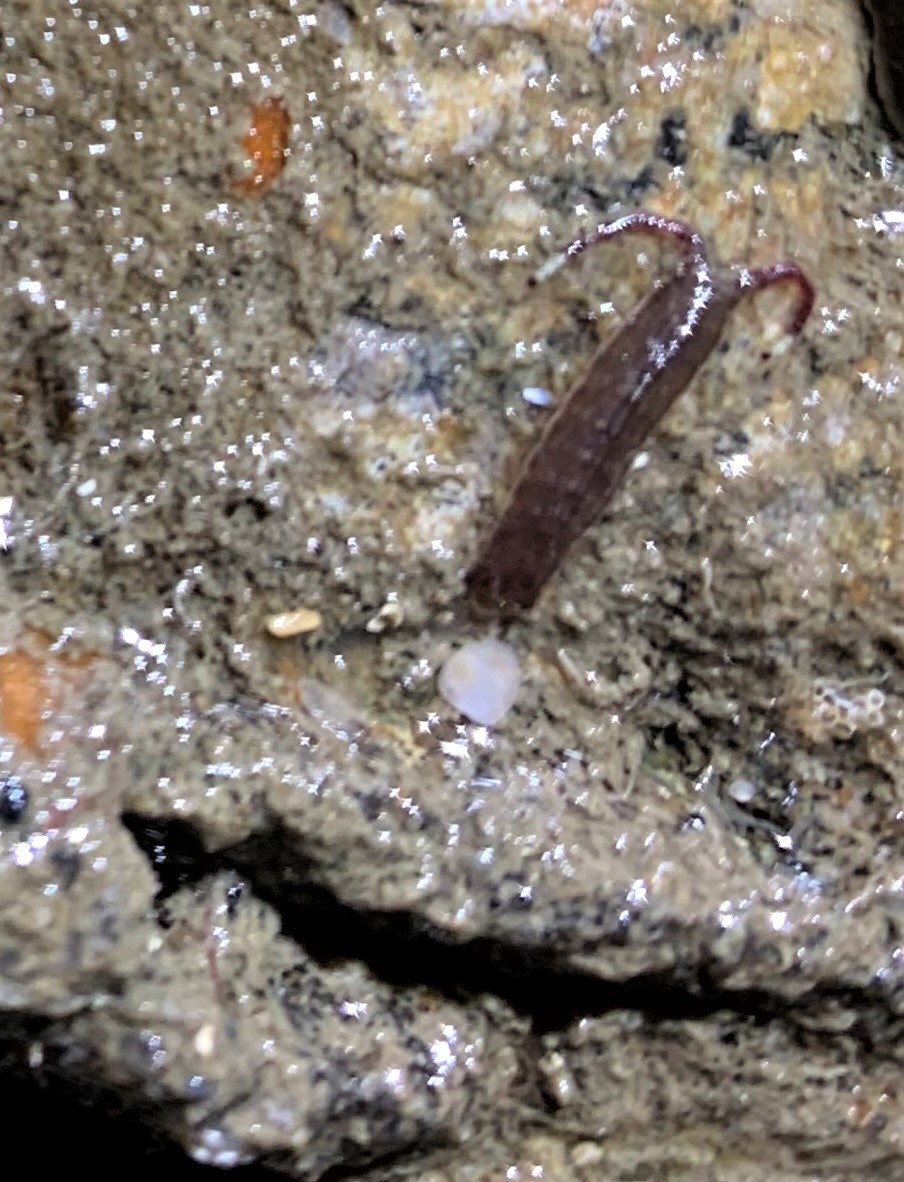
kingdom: Animalia
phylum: Arthropoda
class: Malacostraca
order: Isopoda
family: Idoteidae
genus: Idotea
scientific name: Idotea urotoma
